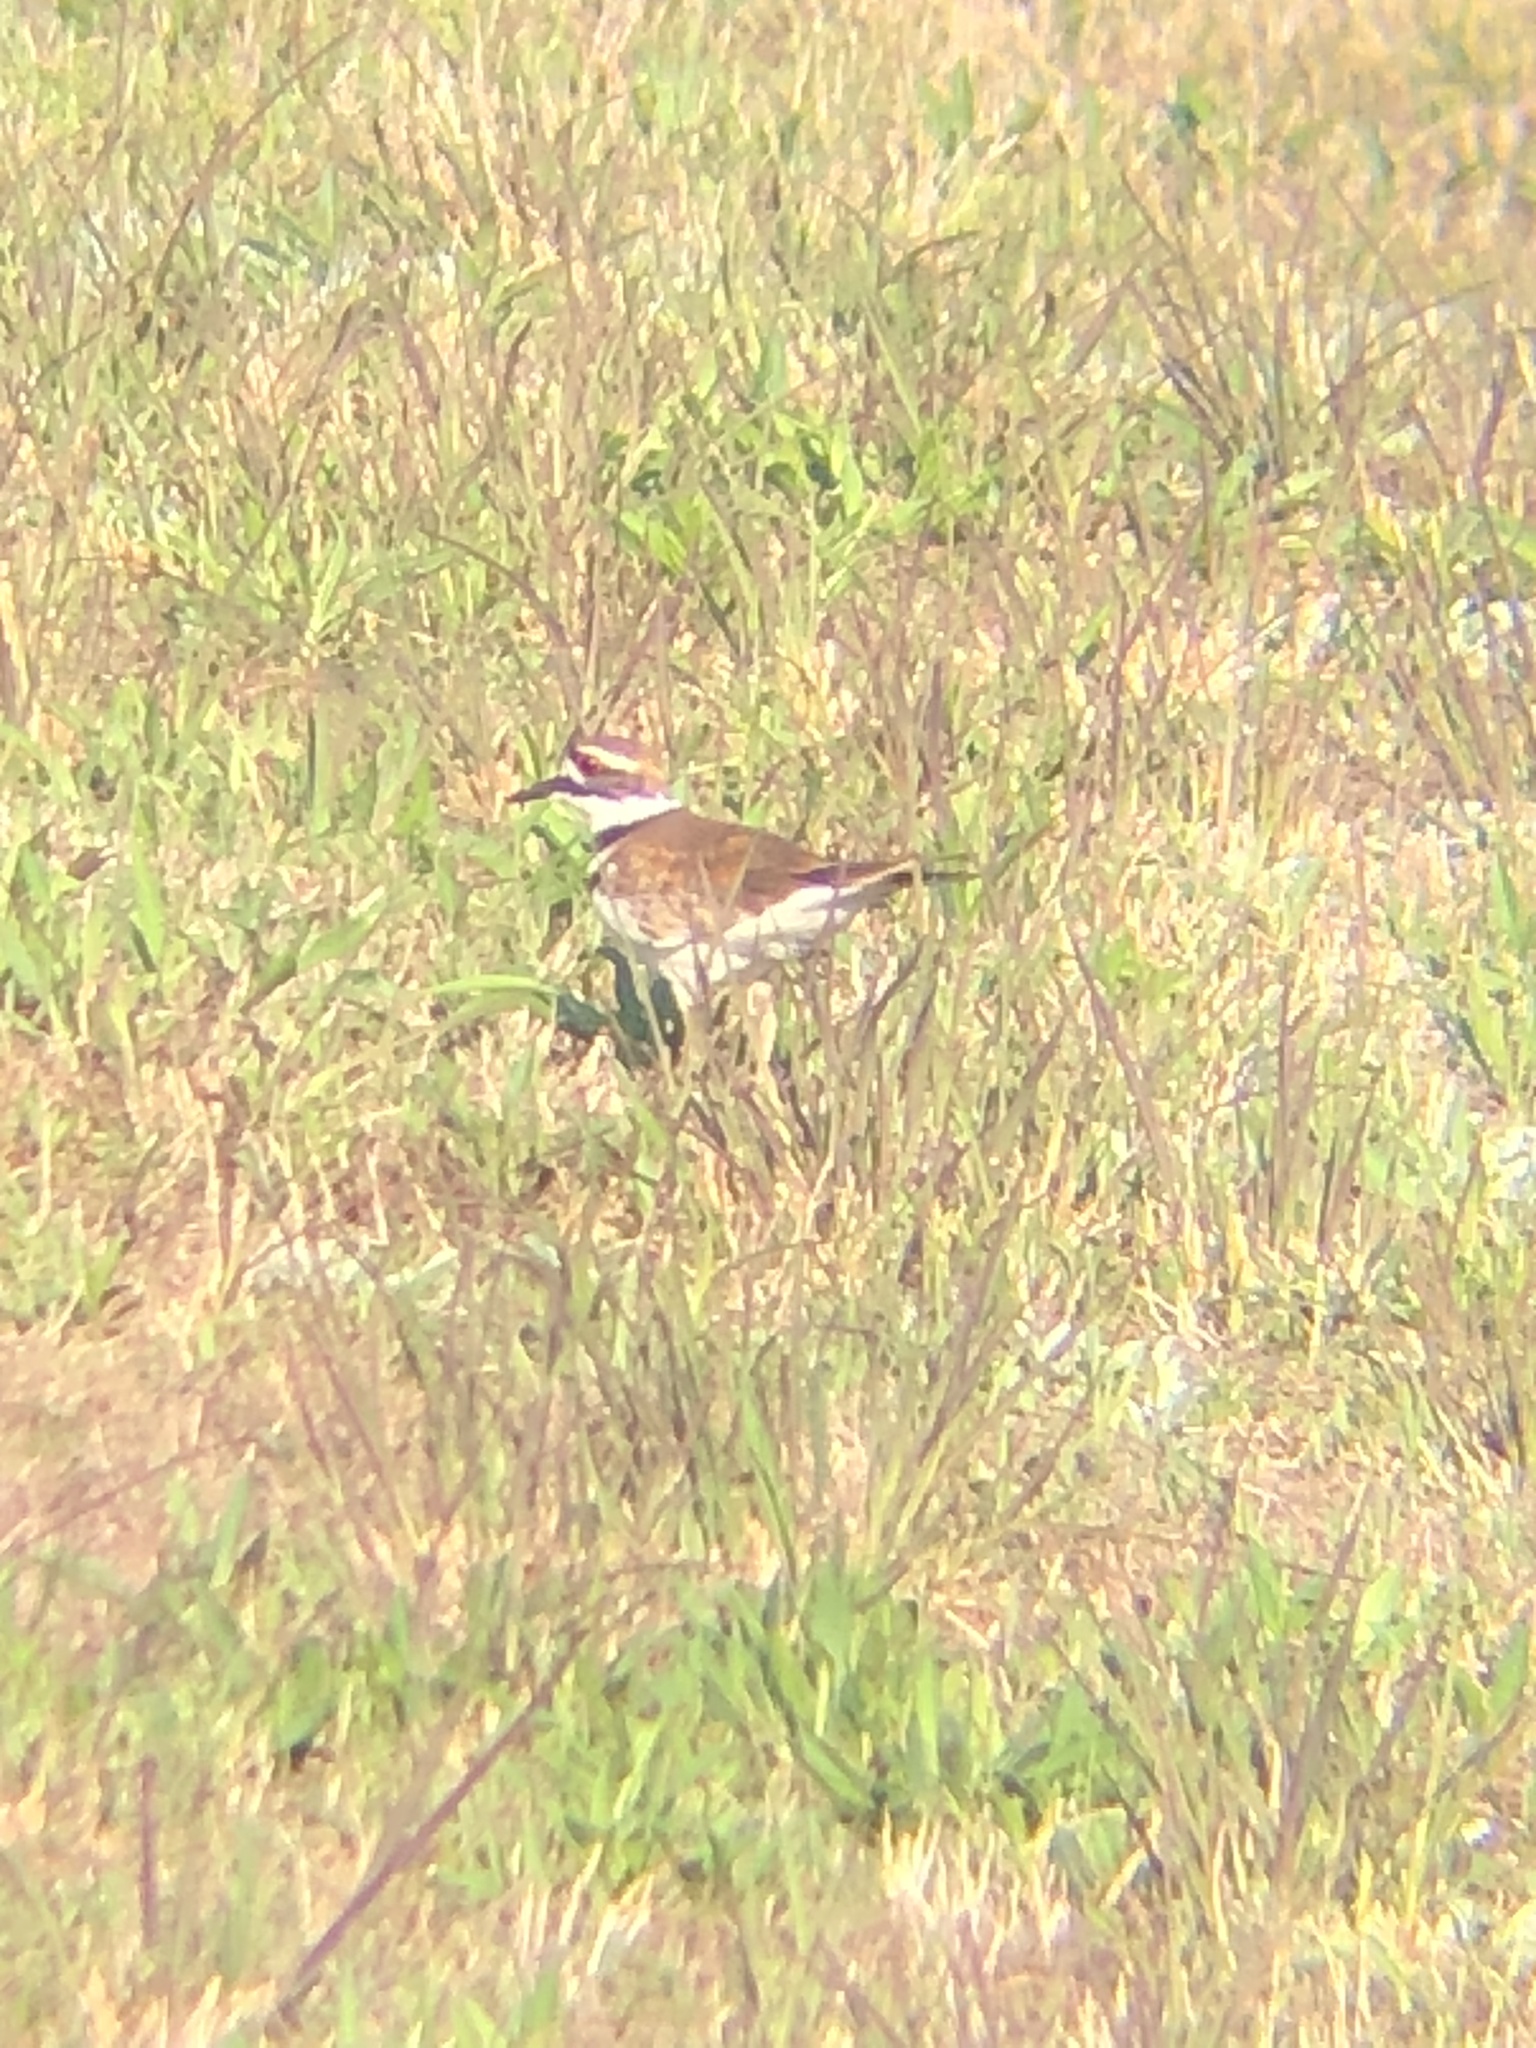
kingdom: Animalia
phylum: Chordata
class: Aves
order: Charadriiformes
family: Charadriidae
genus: Charadrius
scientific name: Charadrius vociferus
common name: Killdeer
